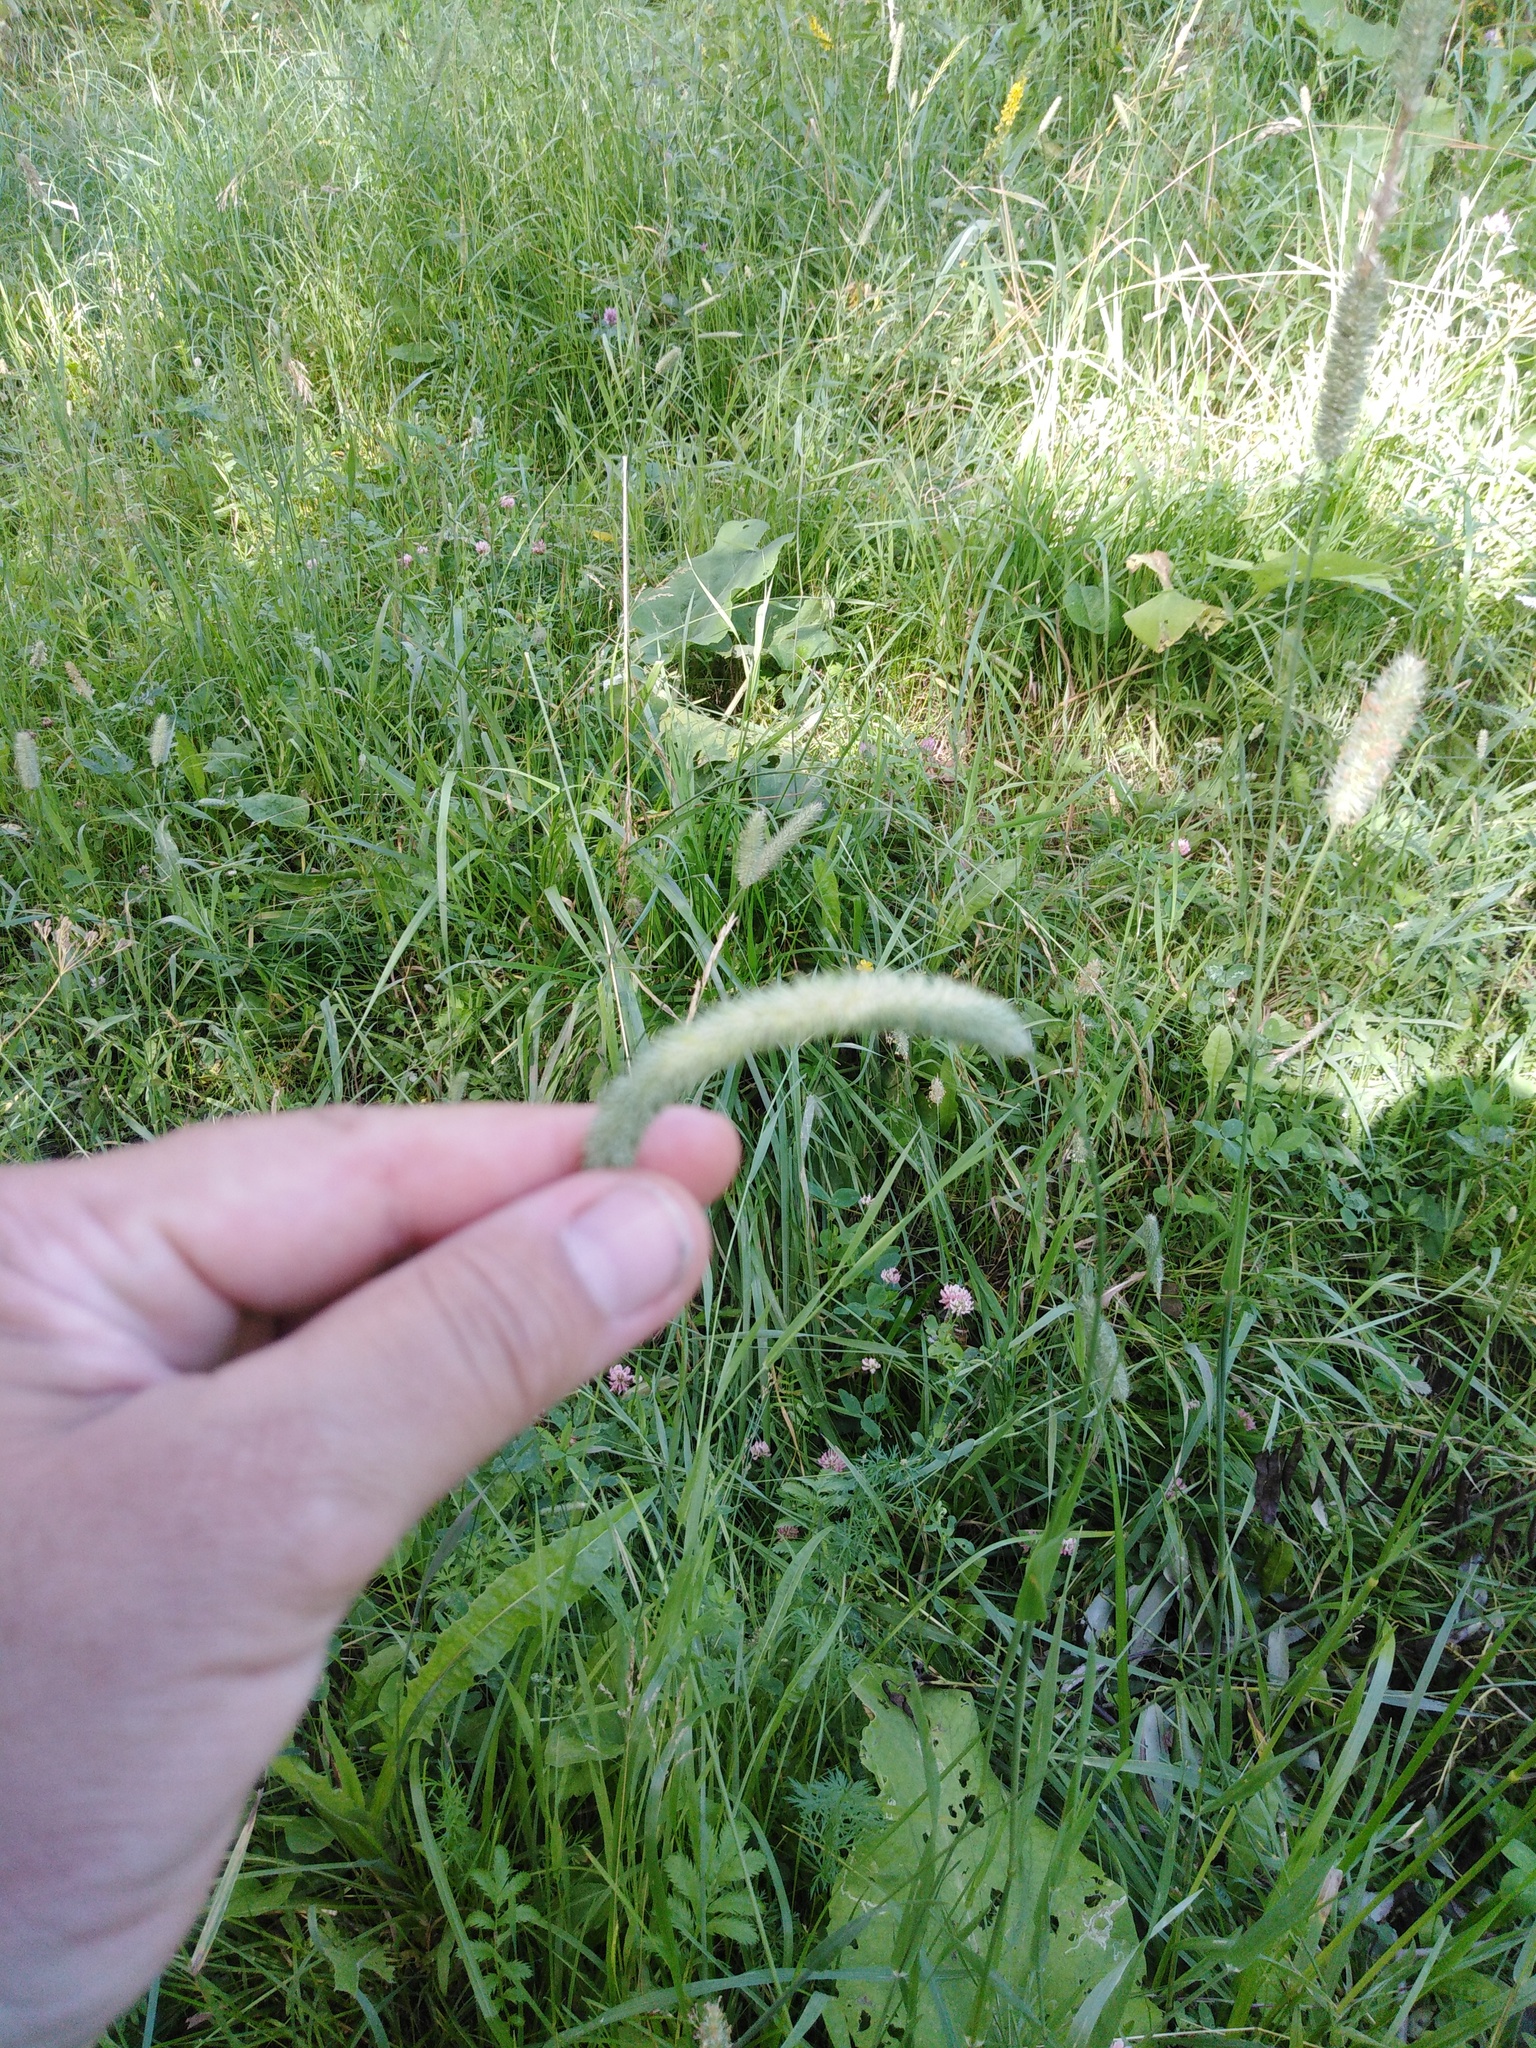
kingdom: Plantae
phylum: Tracheophyta
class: Liliopsida
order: Poales
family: Poaceae
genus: Phleum
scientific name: Phleum pratense
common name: Timothy grass
